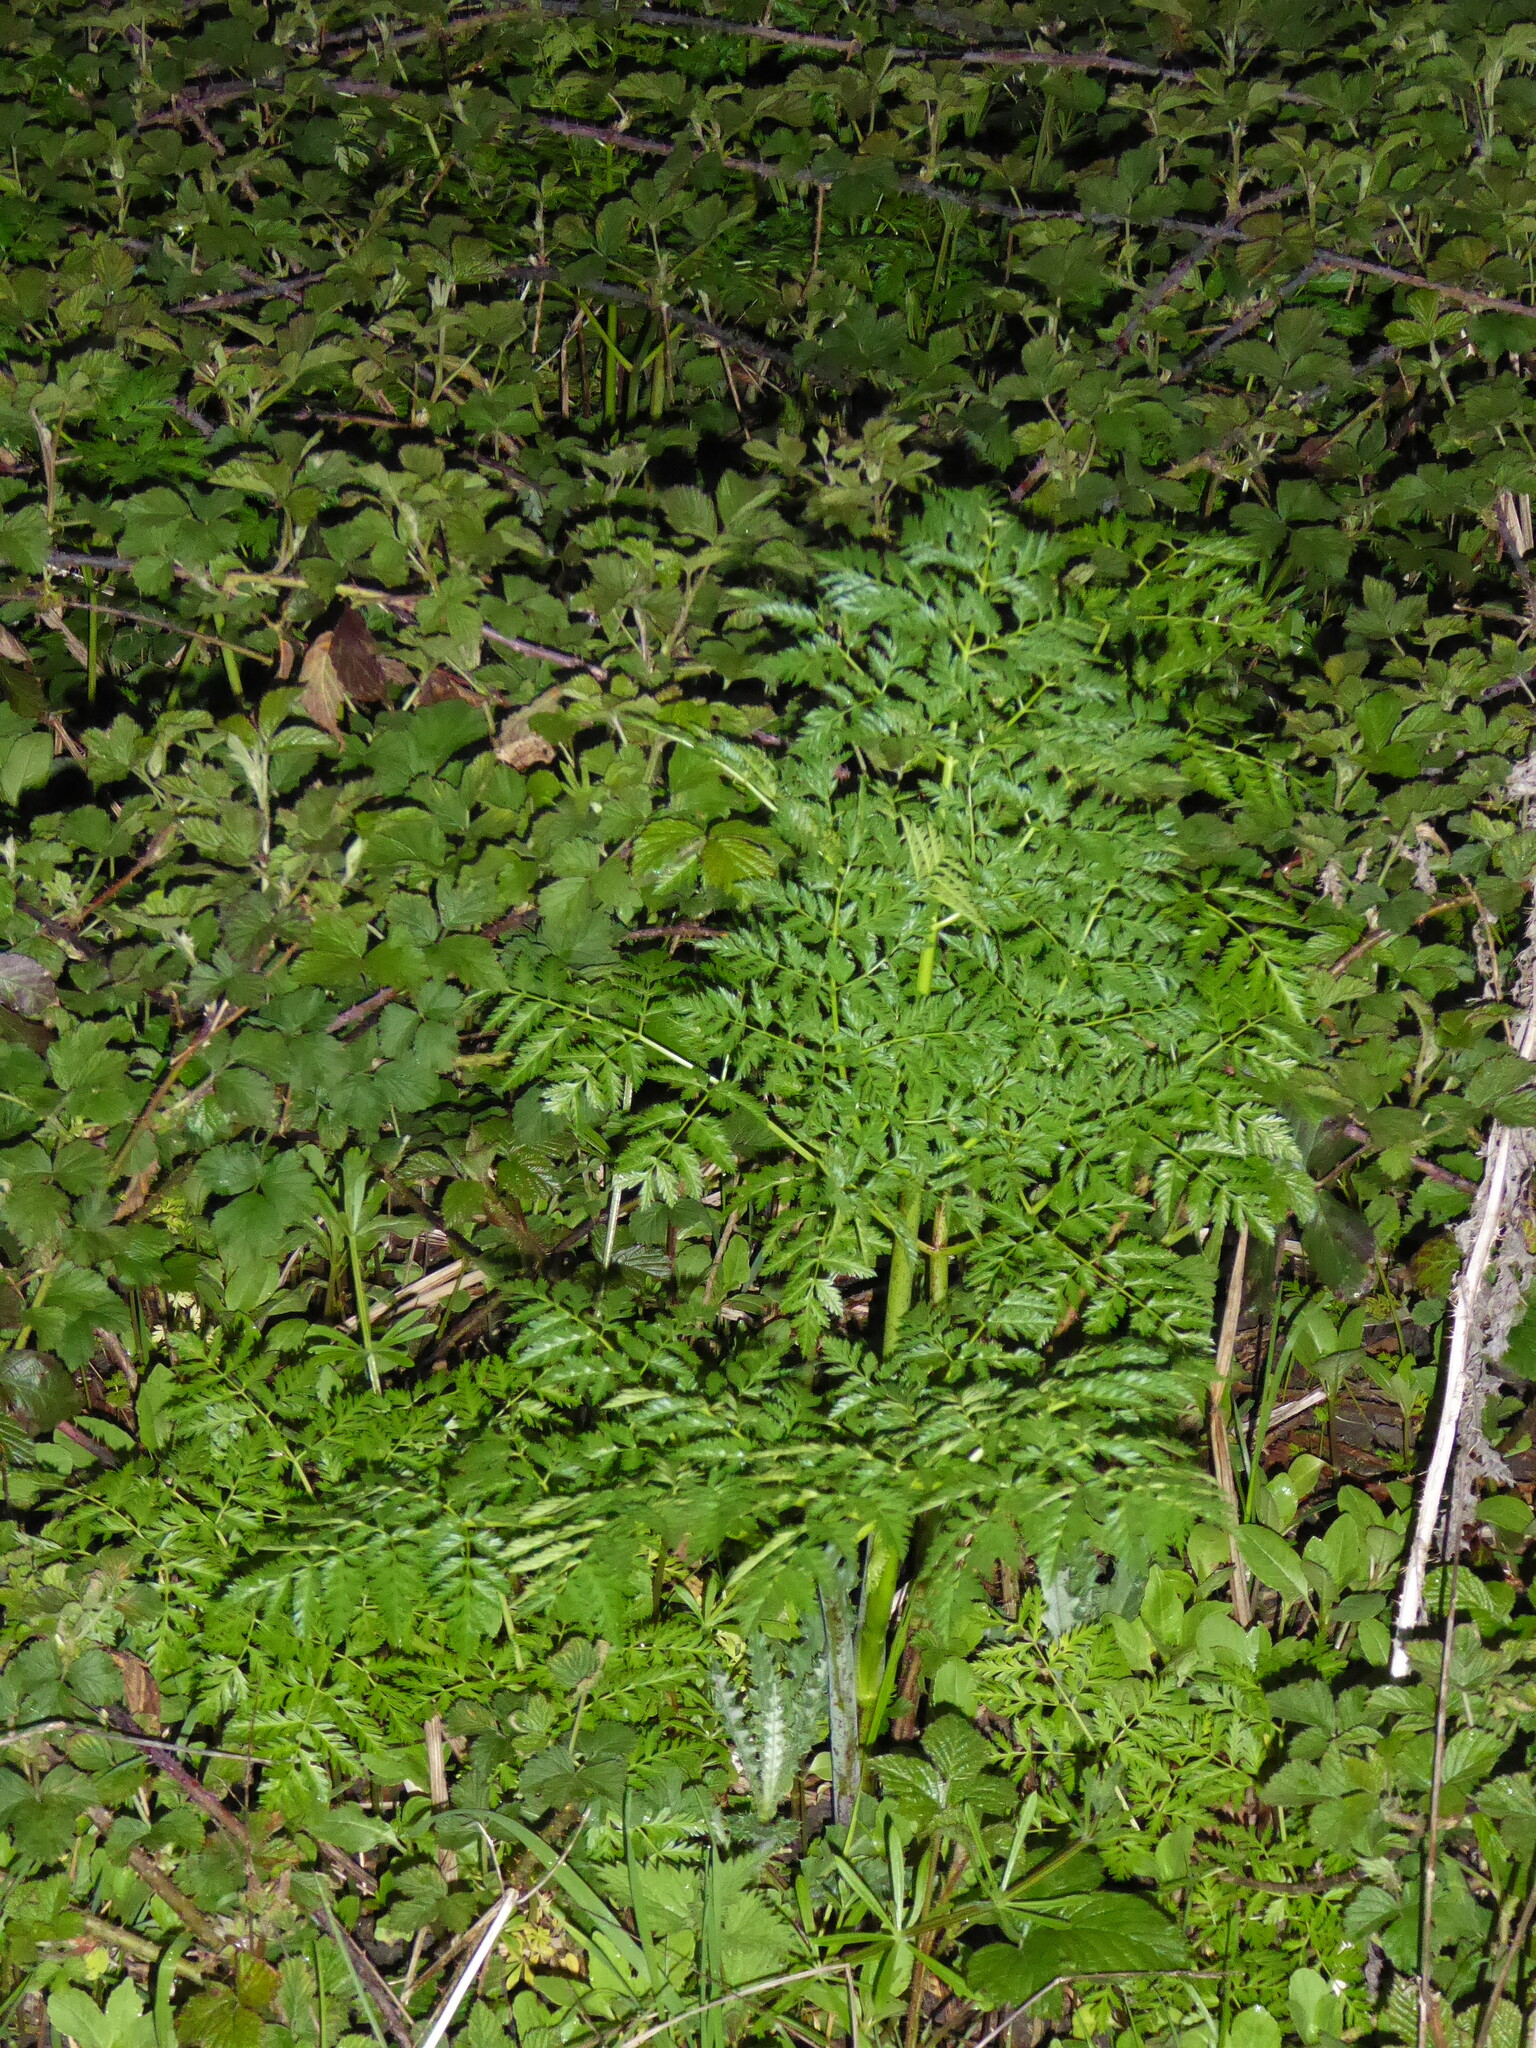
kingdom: Plantae
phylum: Tracheophyta
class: Magnoliopsida
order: Apiales
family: Apiaceae
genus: Conium
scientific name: Conium maculatum
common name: Hemlock
